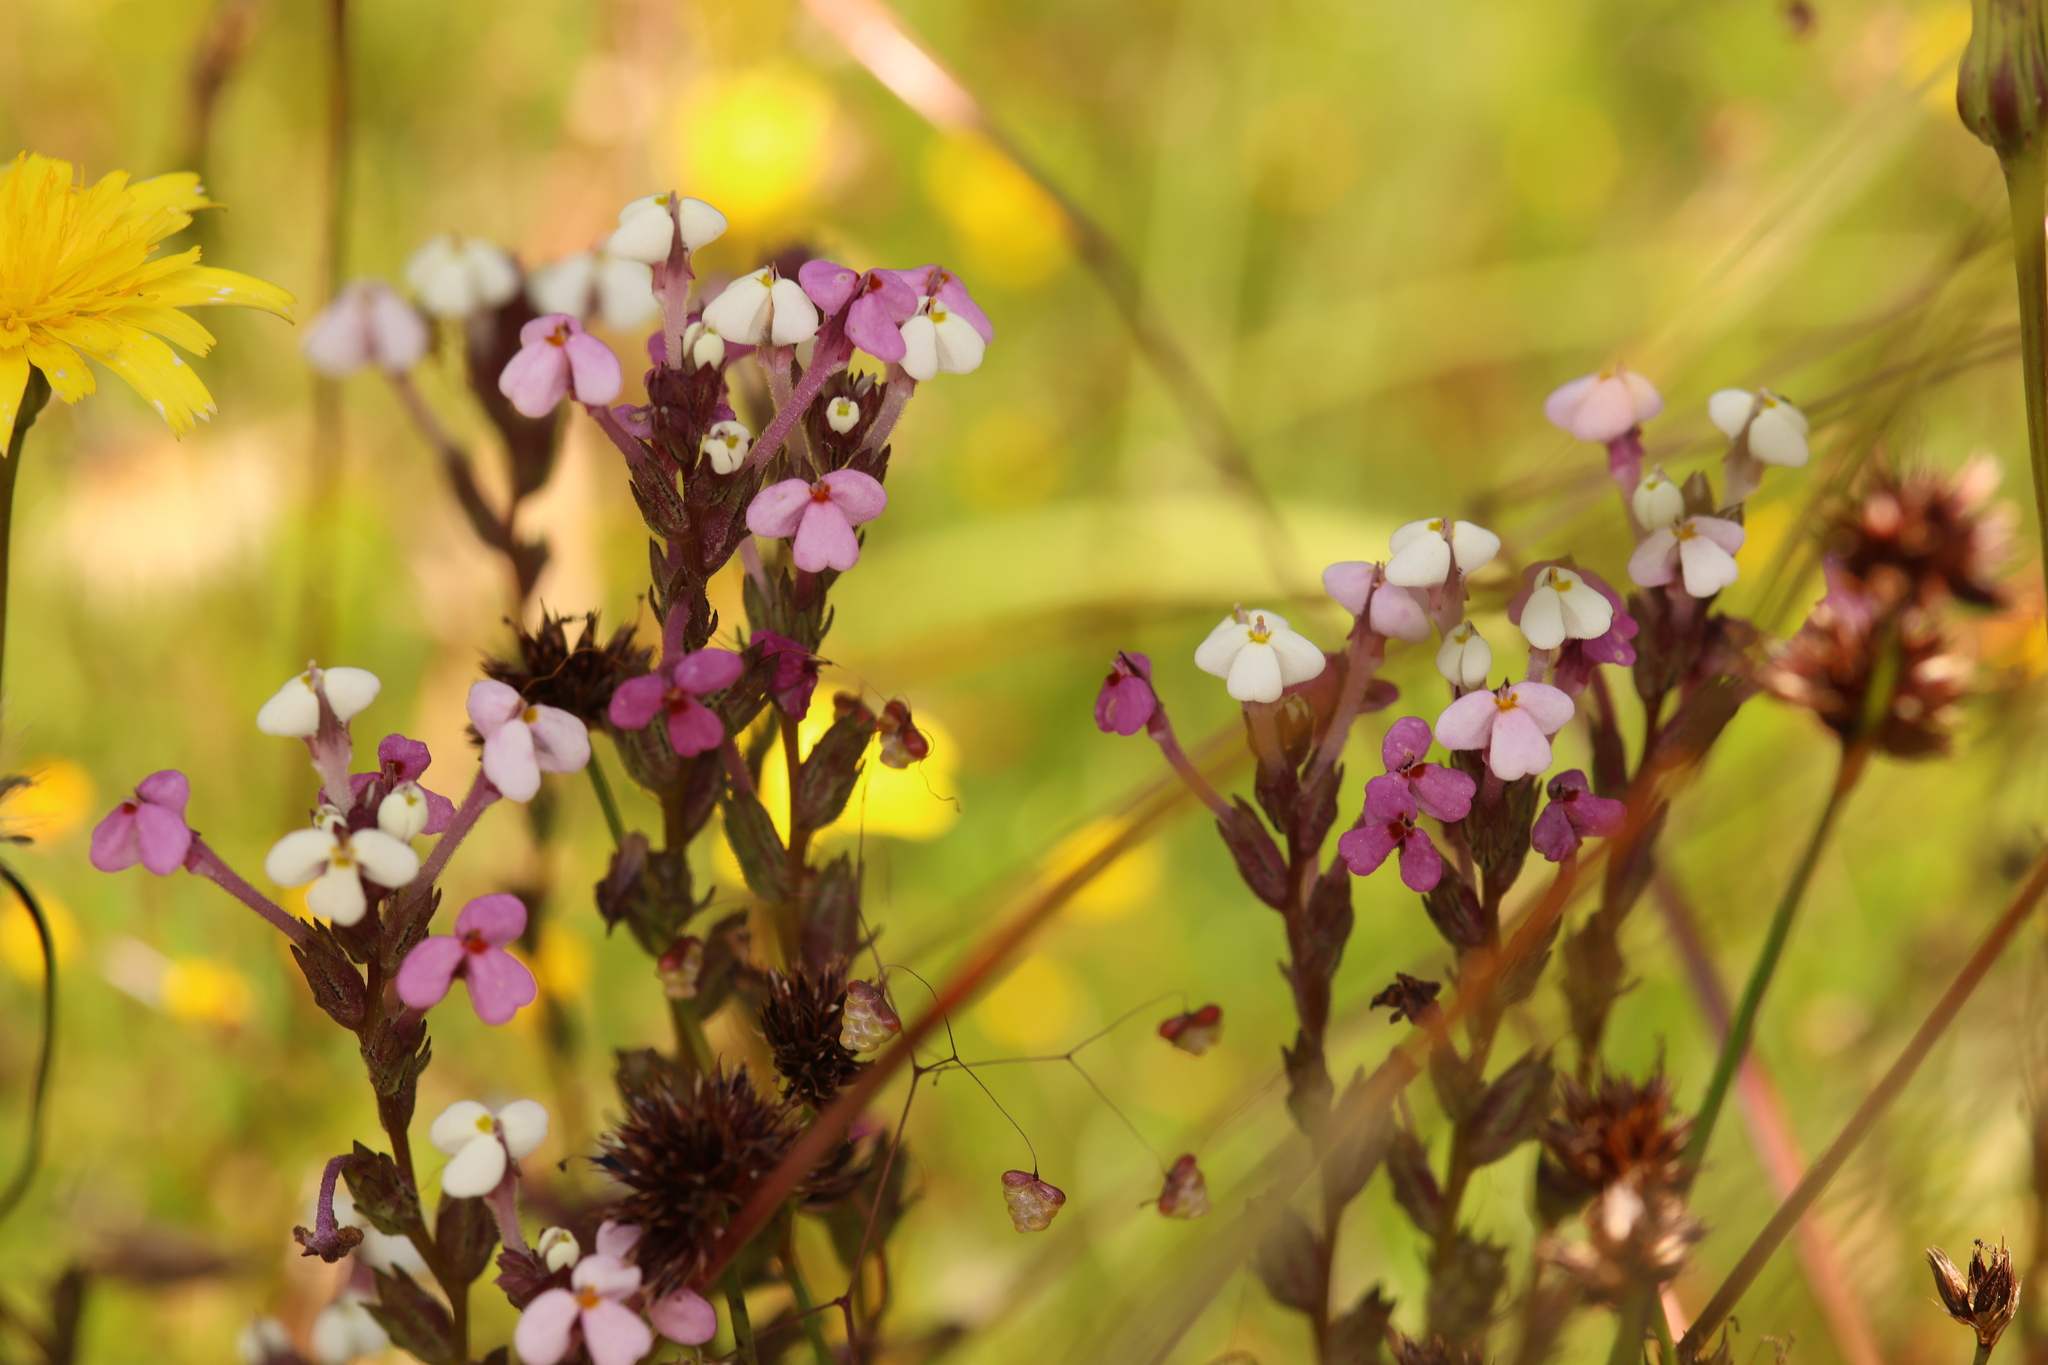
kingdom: Plantae
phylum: Tracheophyta
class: Magnoliopsida
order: Lamiales
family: Orobanchaceae
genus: Triphysaria
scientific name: Triphysaria versicolor
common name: Bearded false owl-clover
